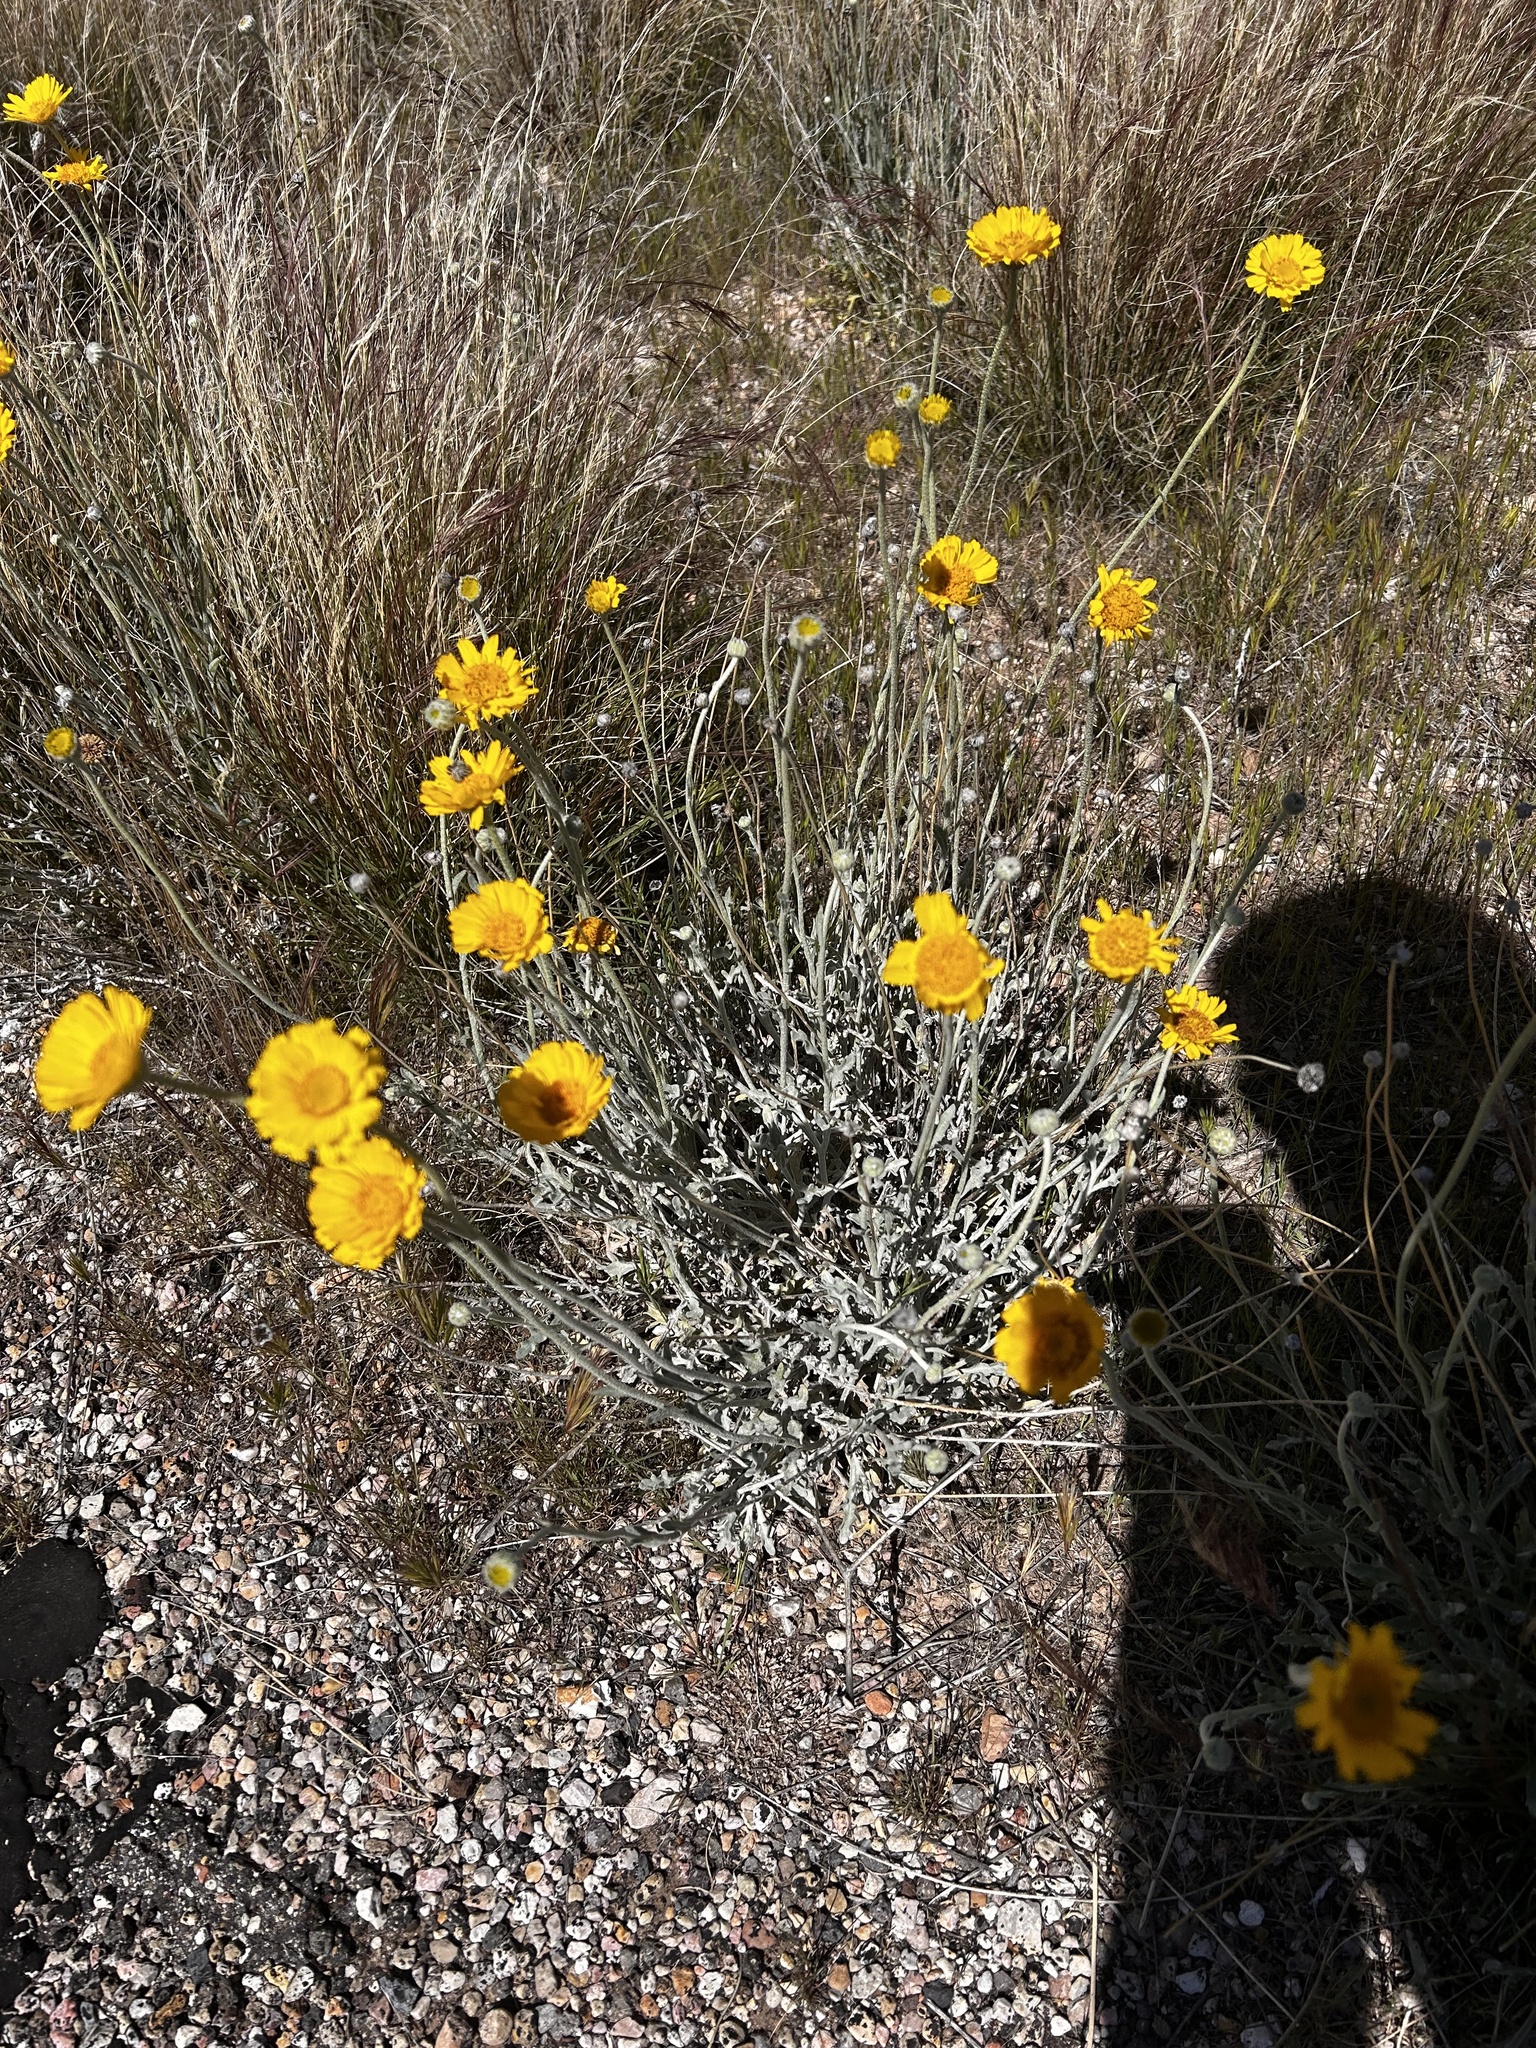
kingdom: Plantae
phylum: Tracheophyta
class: Magnoliopsida
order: Asterales
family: Asteraceae
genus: Baileya
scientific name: Baileya multiradiata
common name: Desert-marigold
